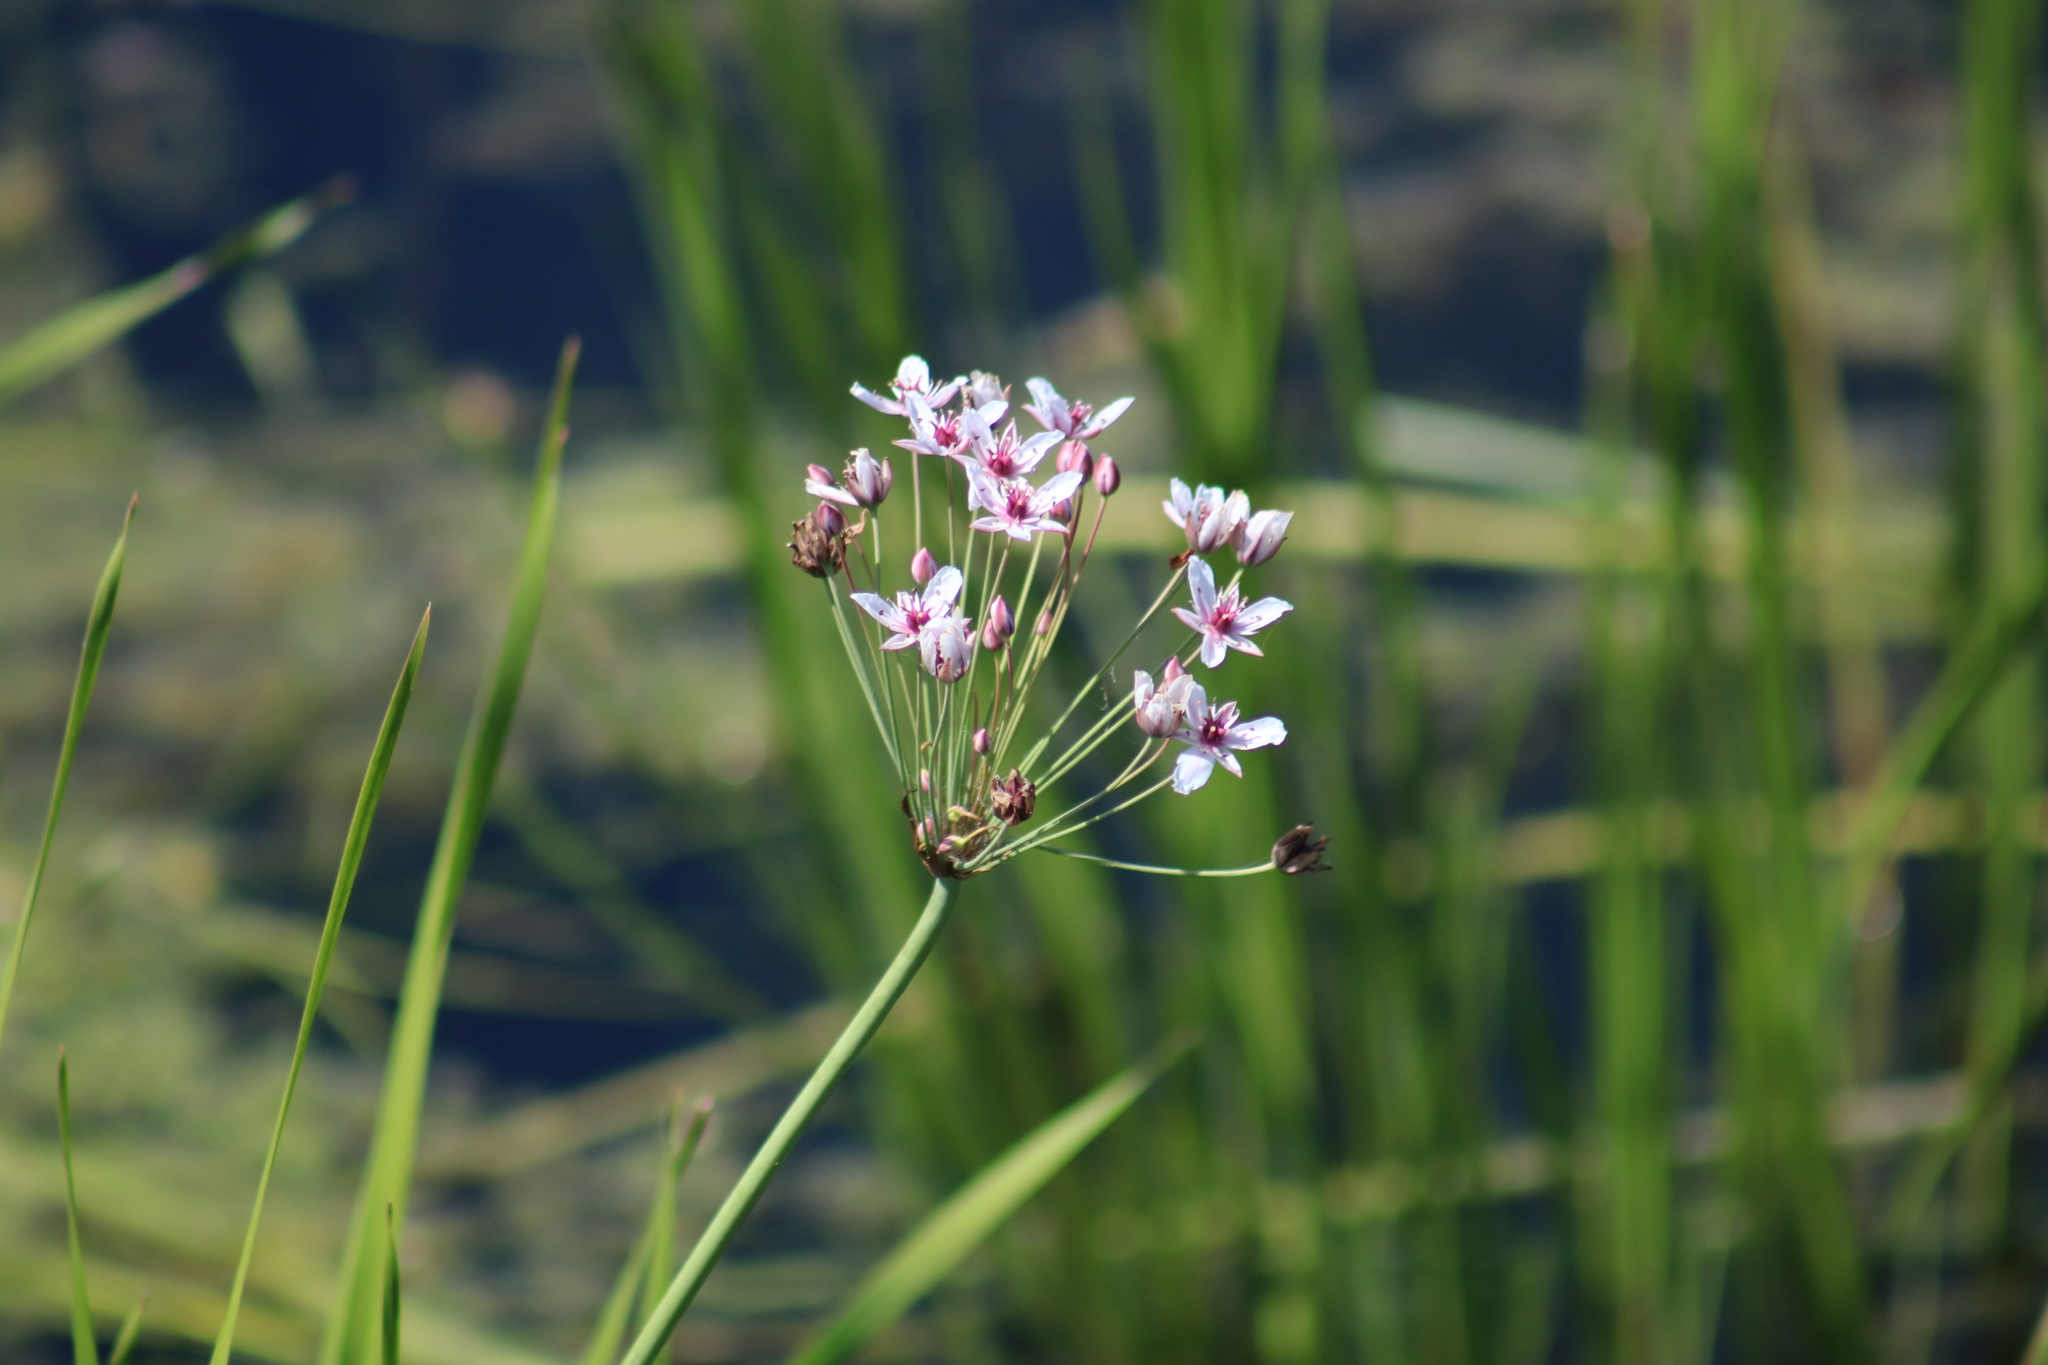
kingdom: Plantae
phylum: Tracheophyta
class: Liliopsida
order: Alismatales
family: Butomaceae
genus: Butomus
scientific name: Butomus umbellatus
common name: Flowering-rush
